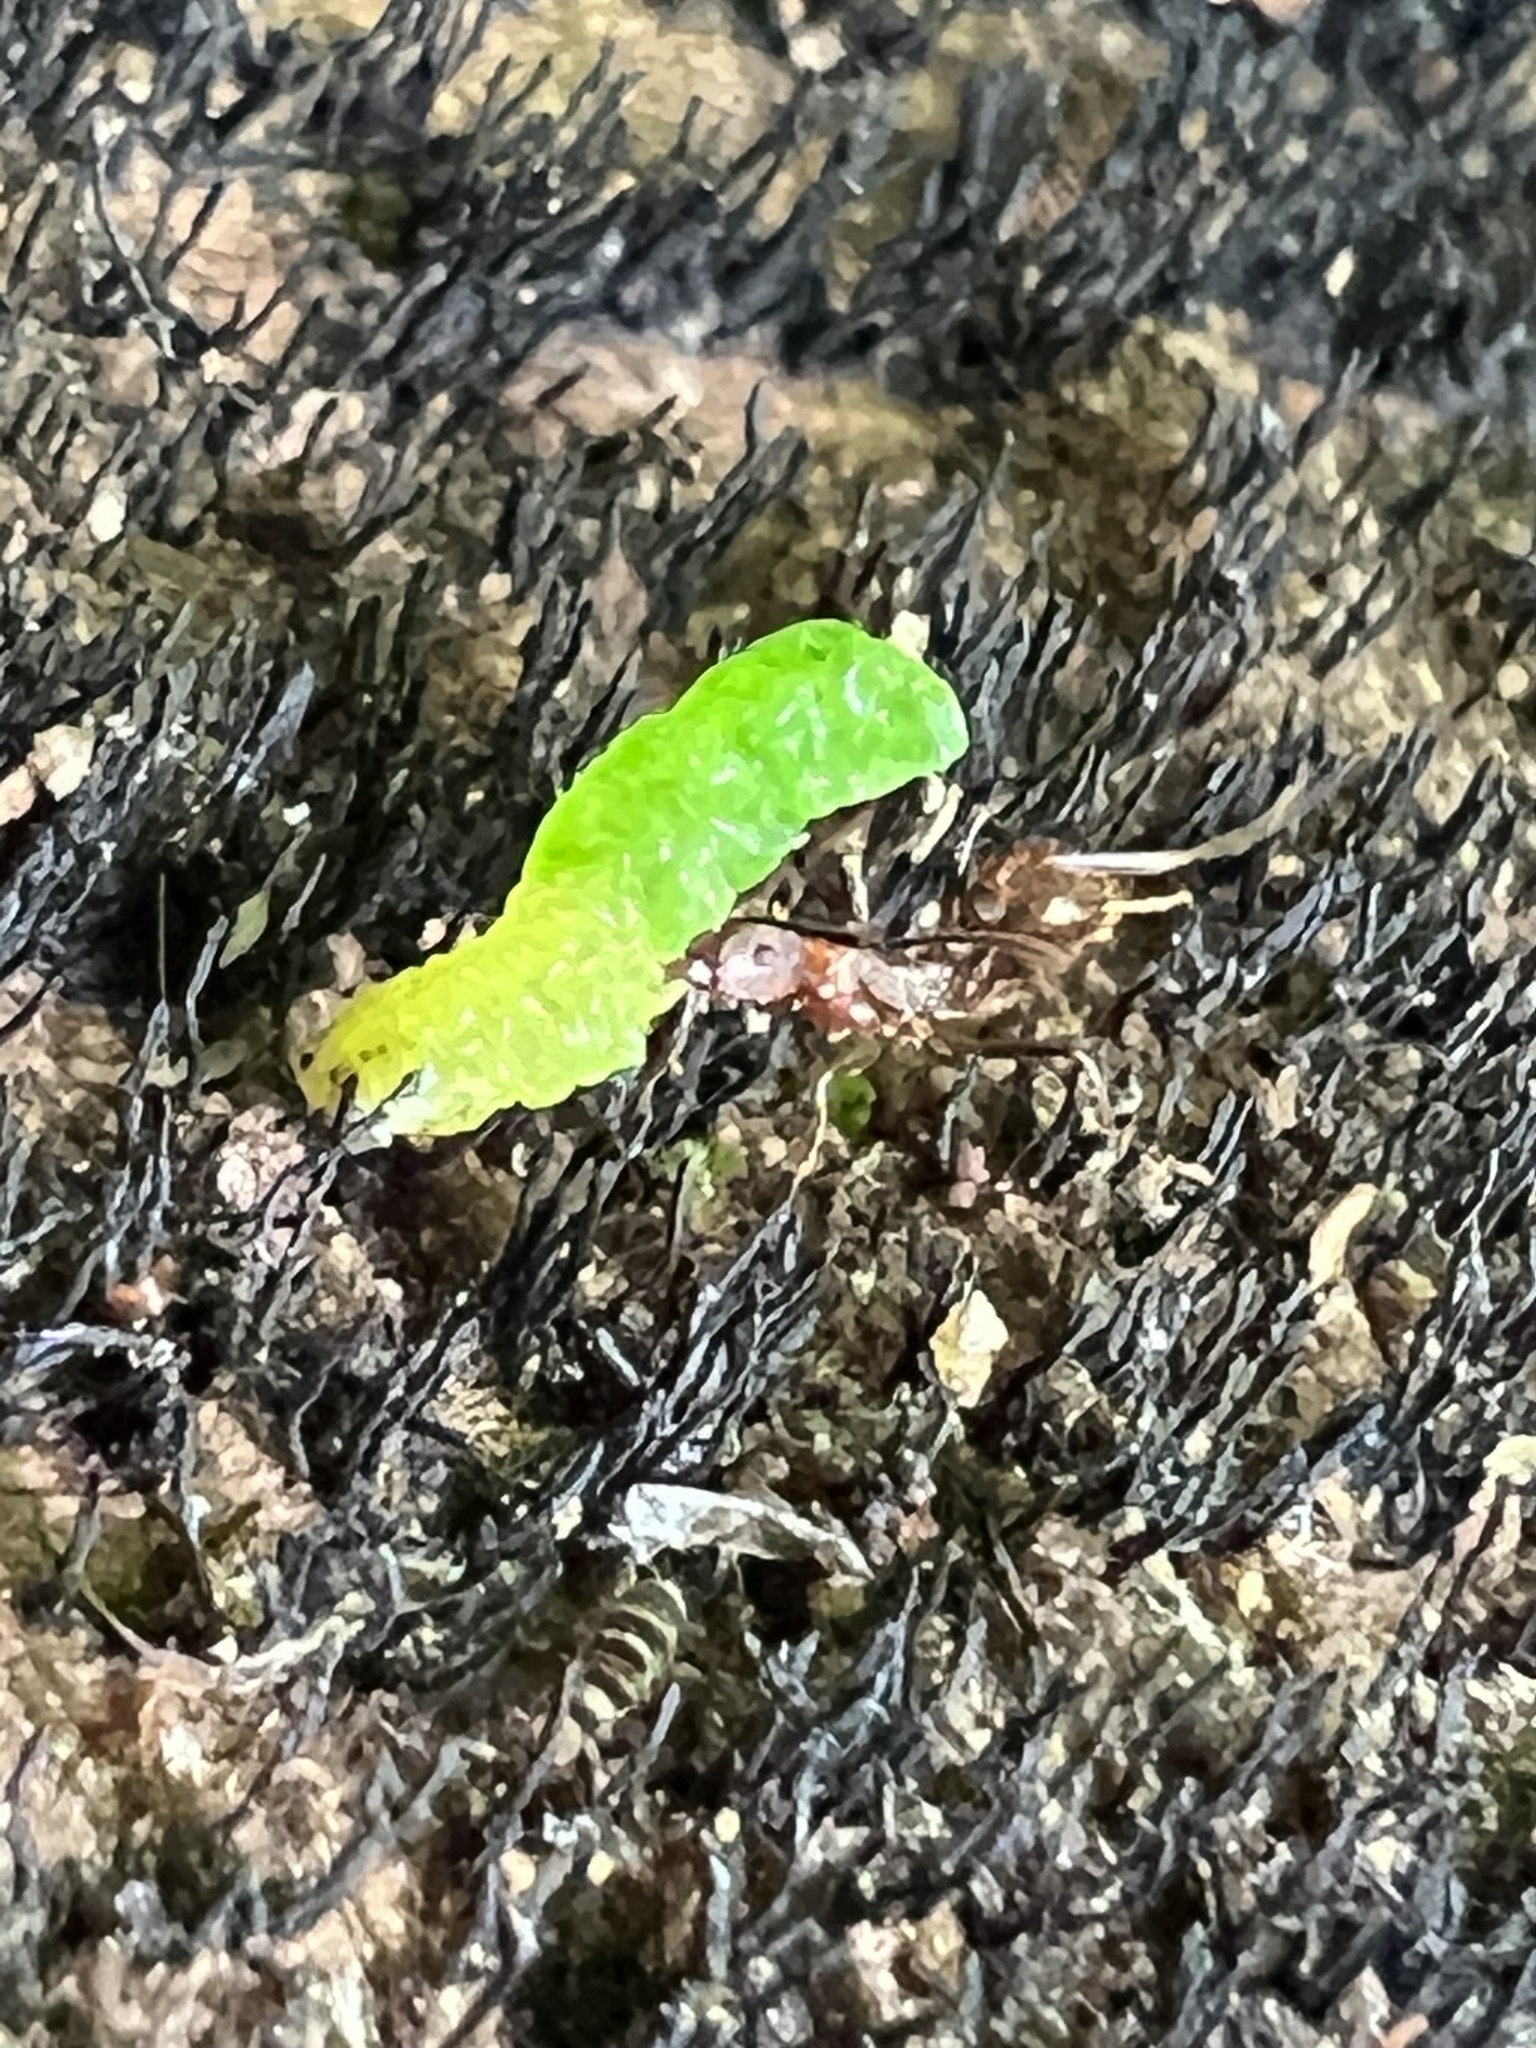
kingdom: Animalia
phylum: Arthropoda
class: Insecta
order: Hymenoptera
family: Formicidae
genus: Aphaenogaster
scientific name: Aphaenogaster fulva
